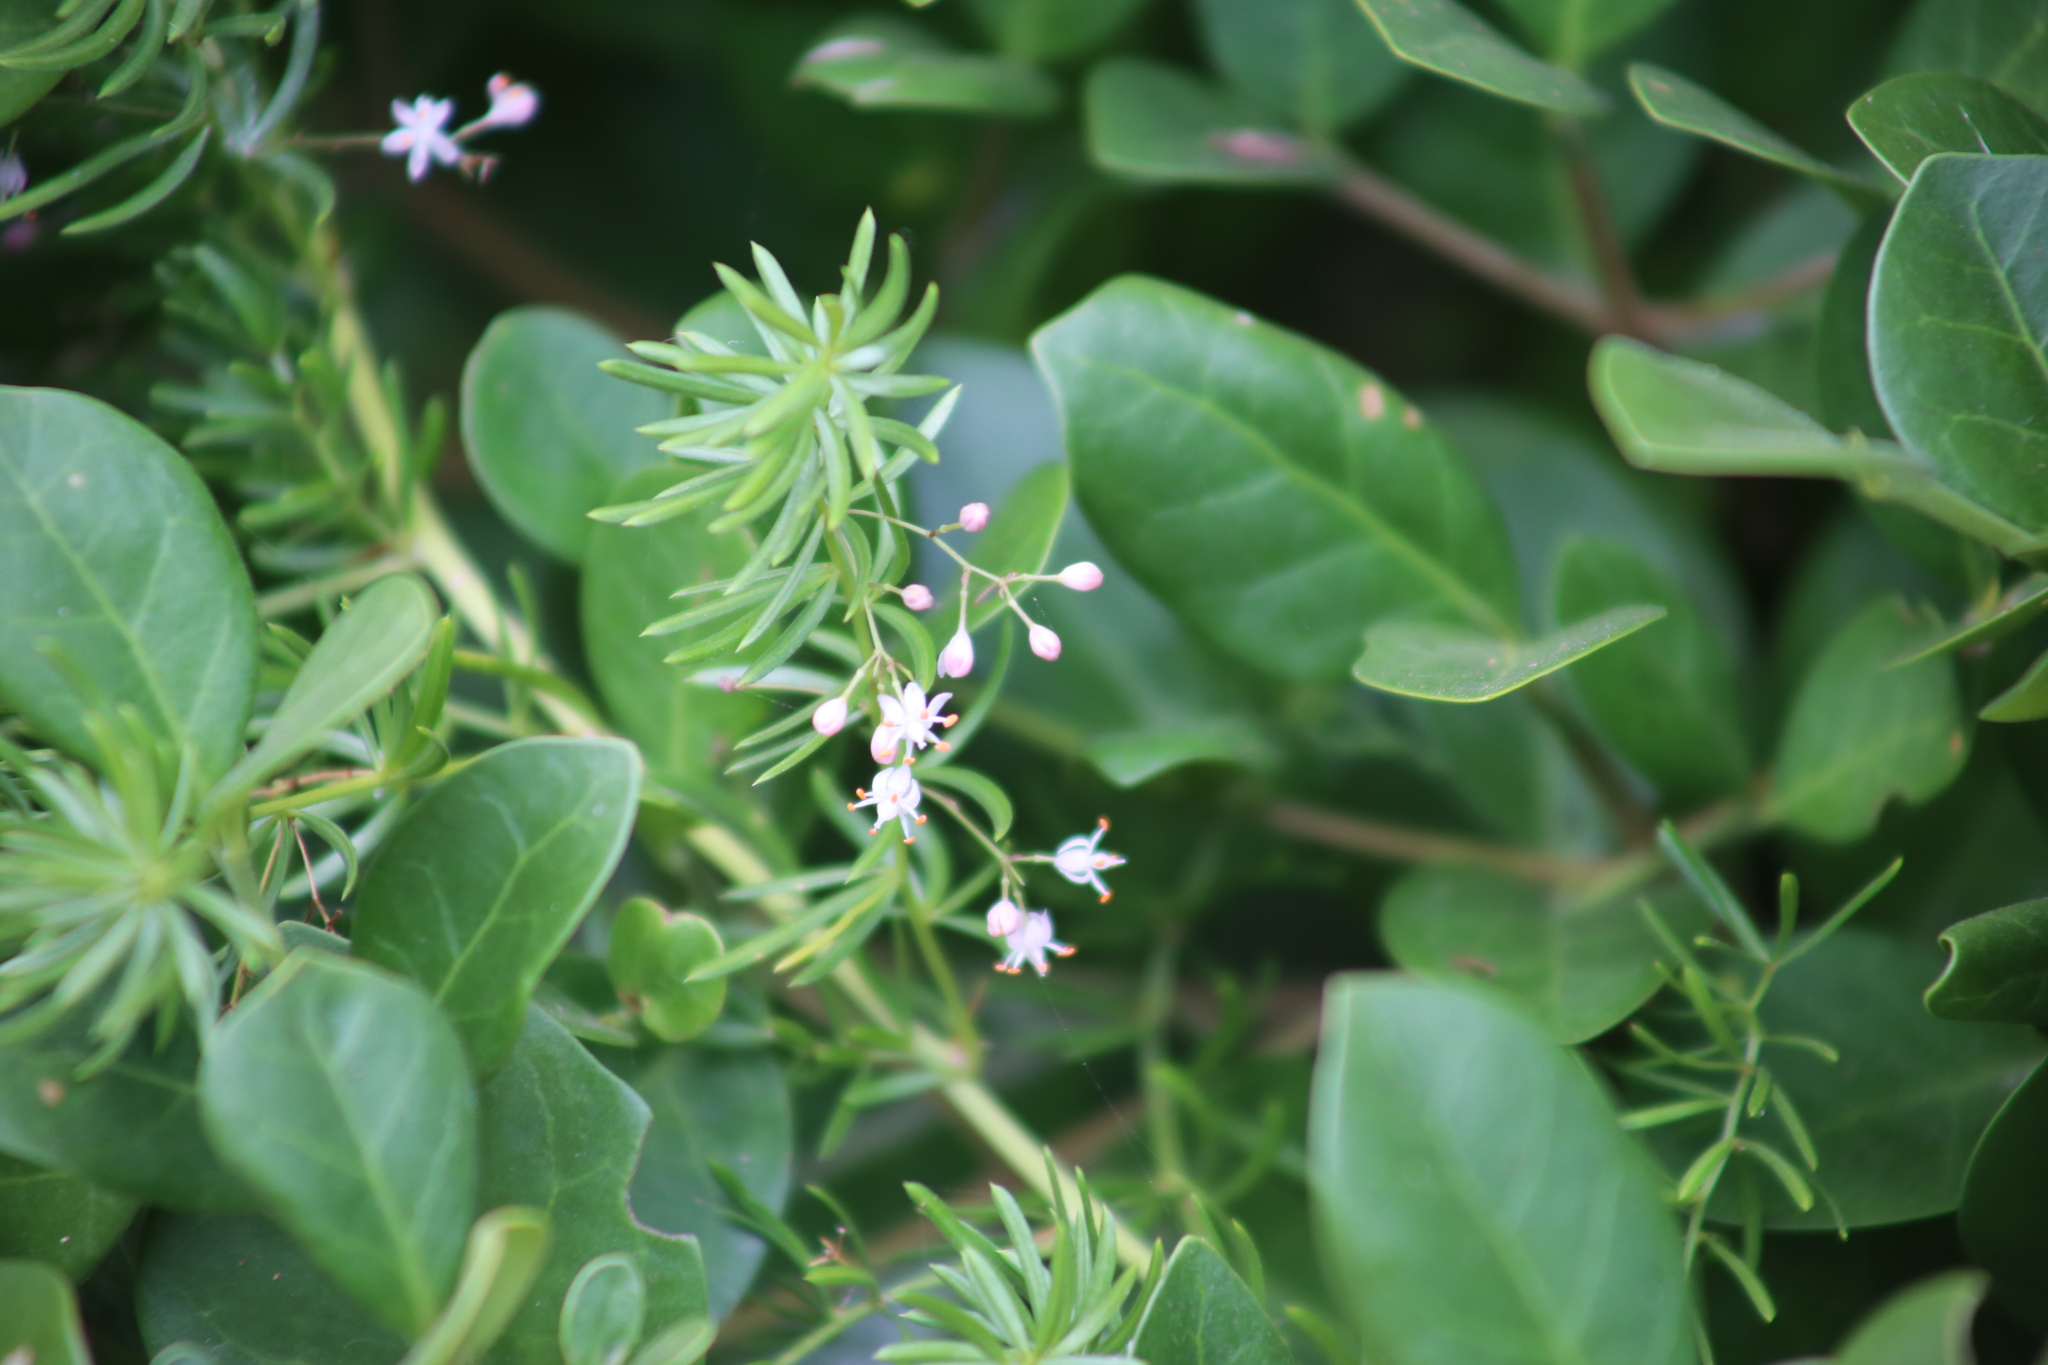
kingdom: Plantae
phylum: Tracheophyta
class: Liliopsida
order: Asparagales
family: Asparagaceae
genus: Asparagus
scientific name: Asparagus aethiopicus
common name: Sprenger's asparagus fern
